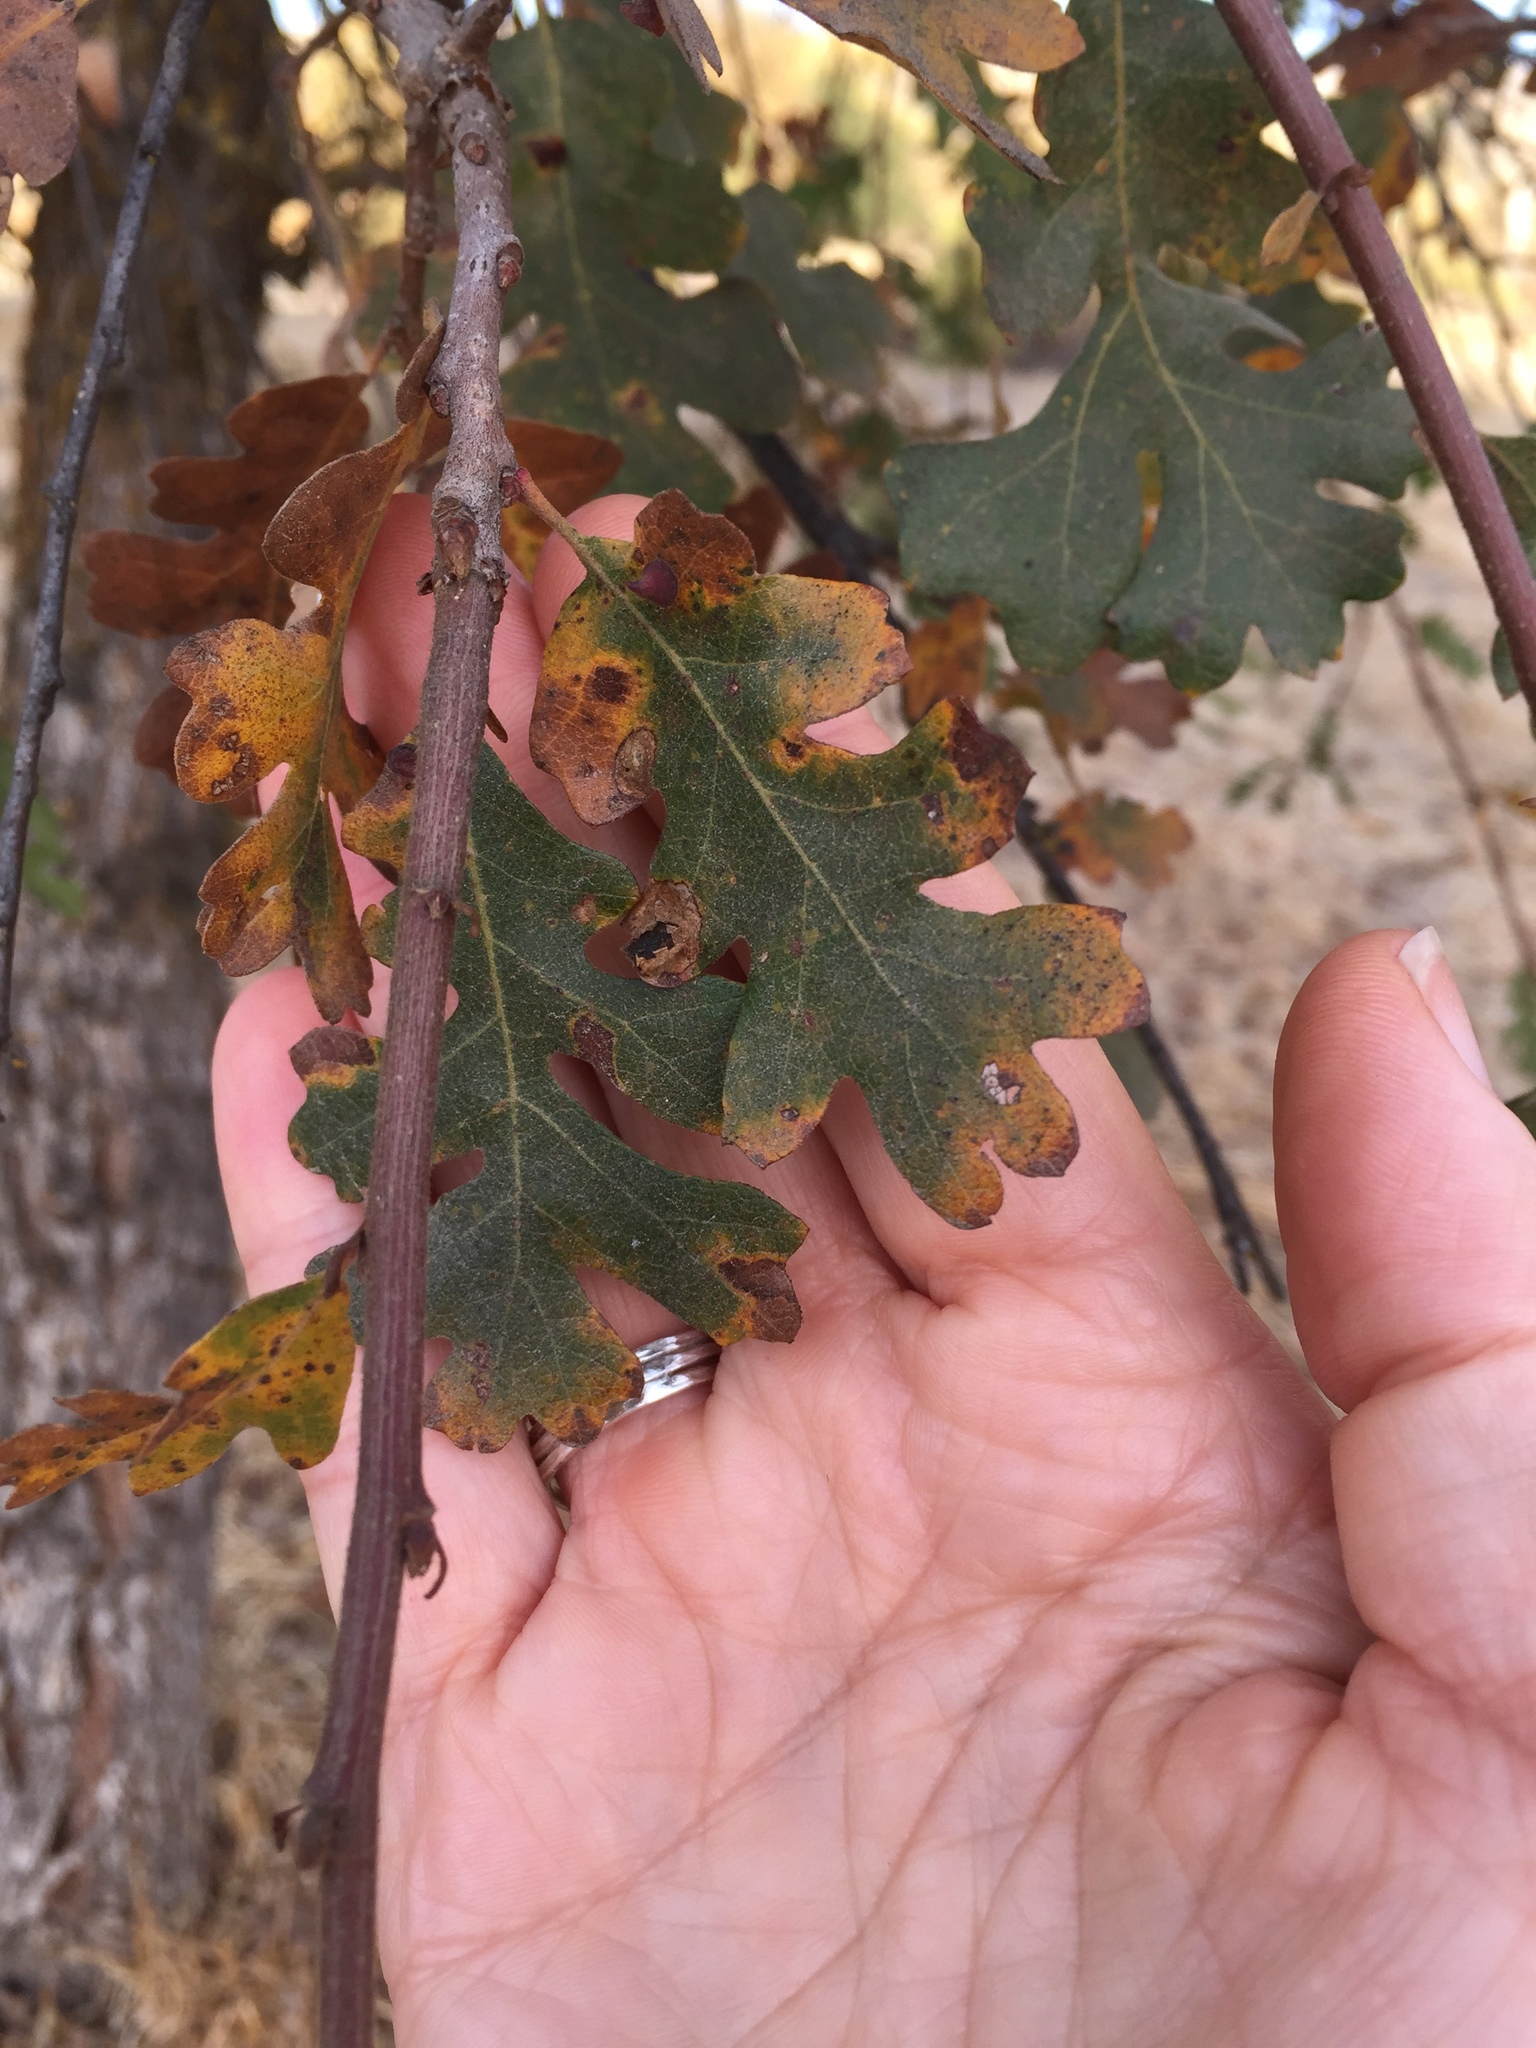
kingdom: Animalia
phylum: Arthropoda
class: Insecta
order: Hymenoptera
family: Cynipidae
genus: Andricus
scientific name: Andricus quercuscalifornicus
